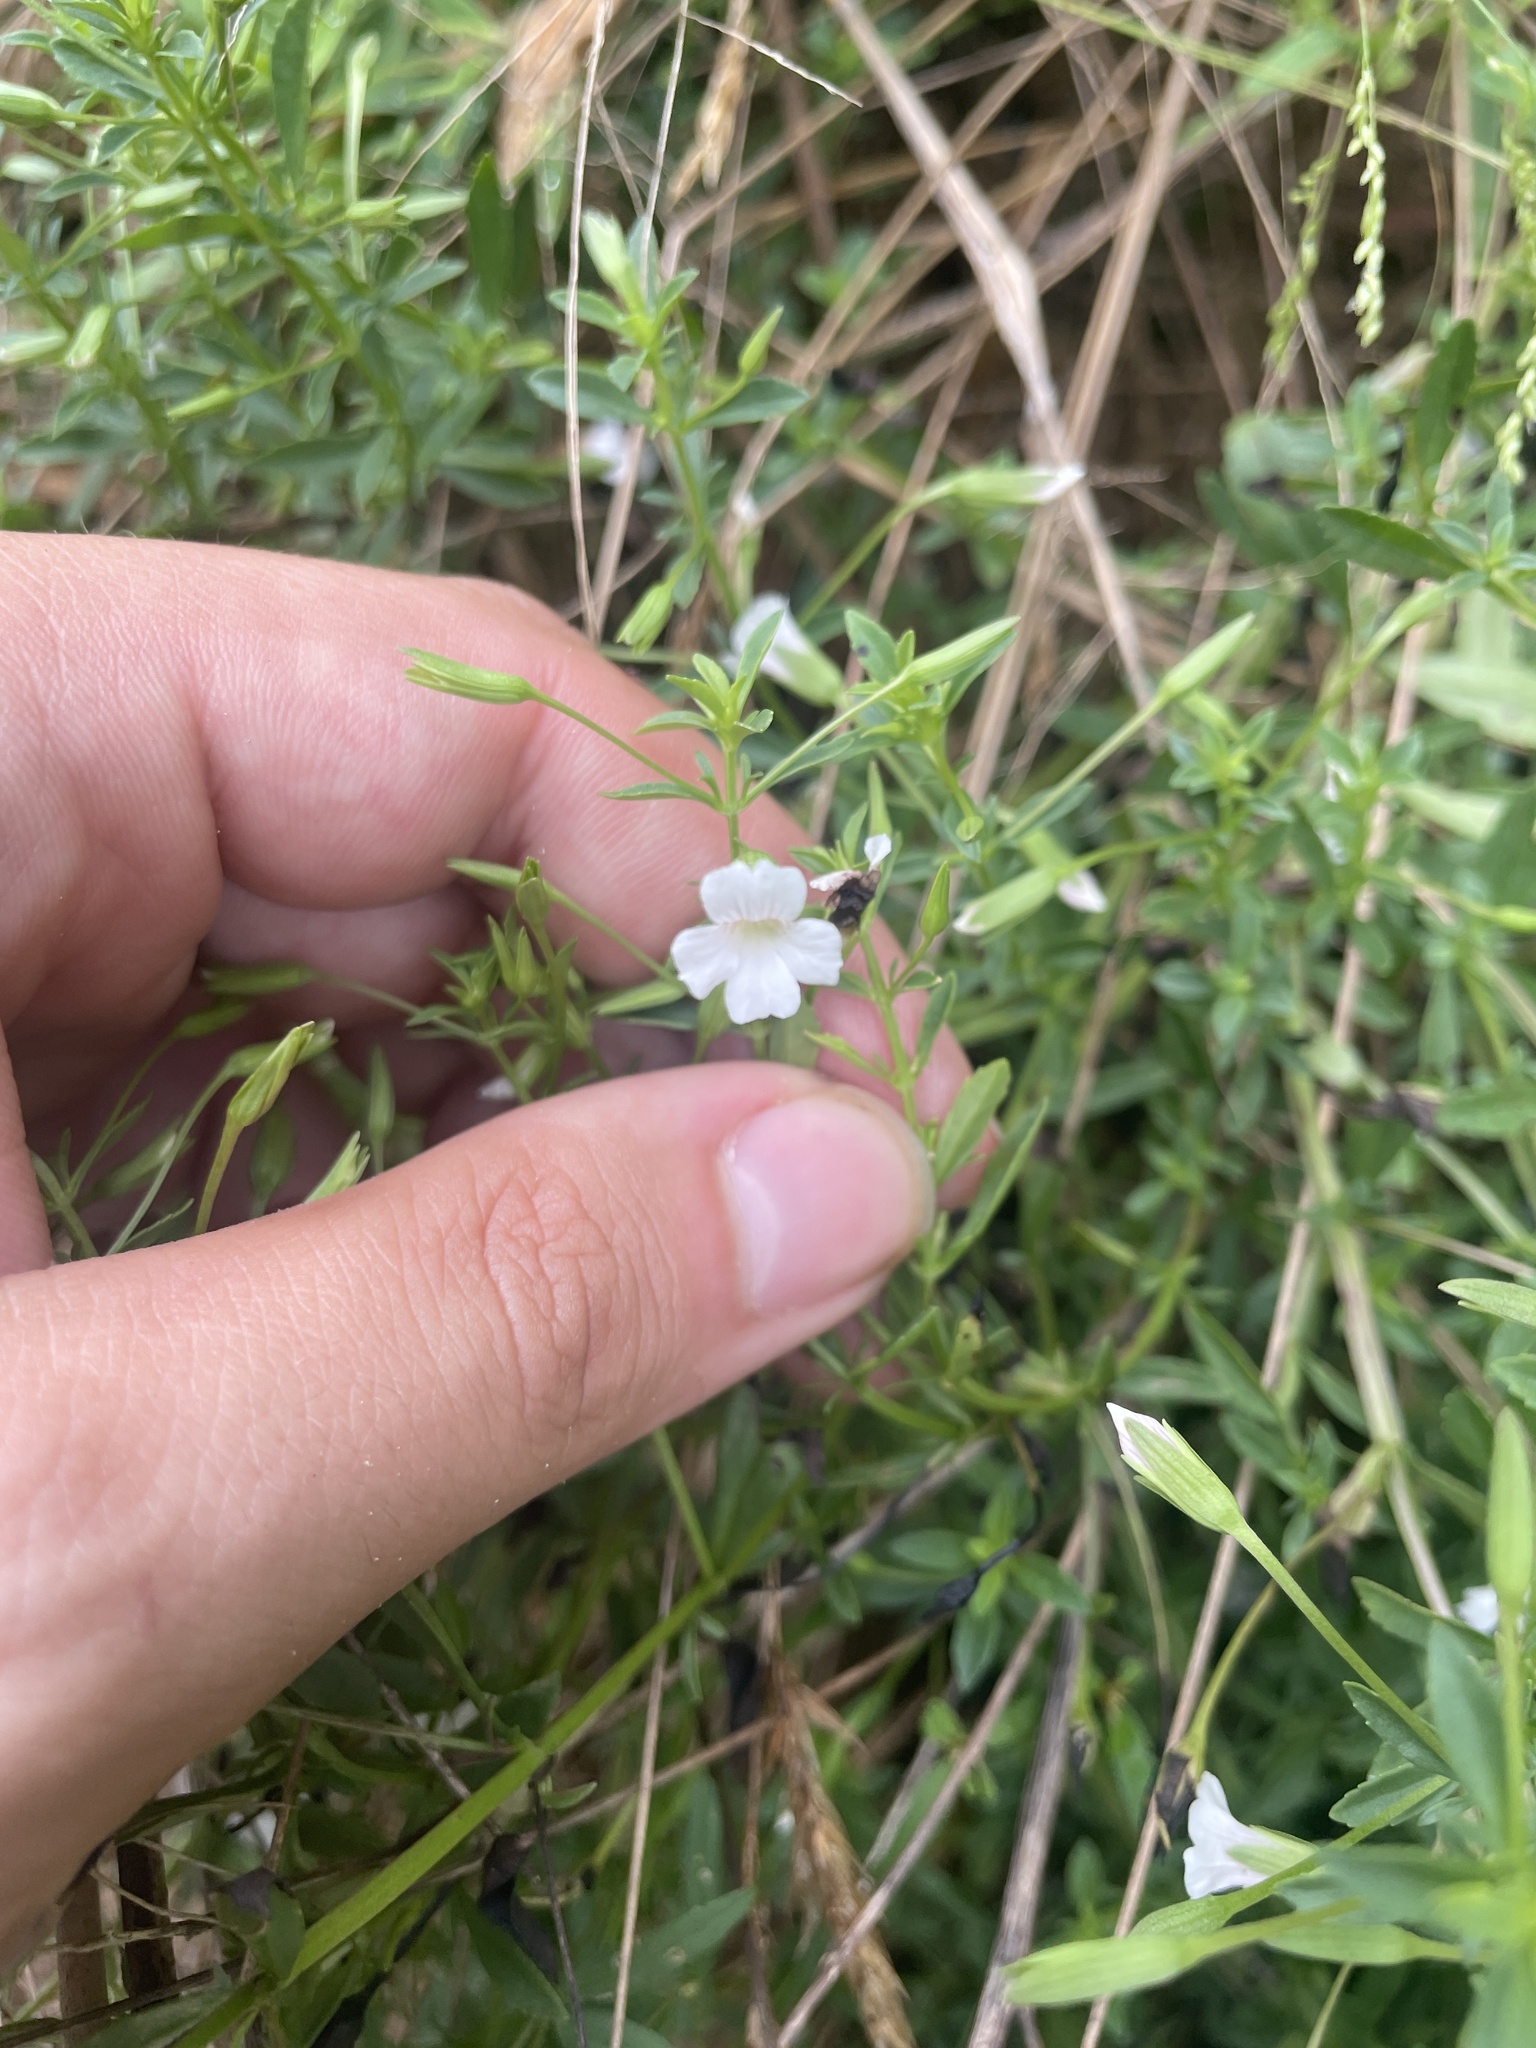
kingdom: Plantae
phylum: Tracheophyta
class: Magnoliopsida
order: Lamiales
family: Plantaginaceae
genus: Mecardonia
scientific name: Mecardonia acuminata
